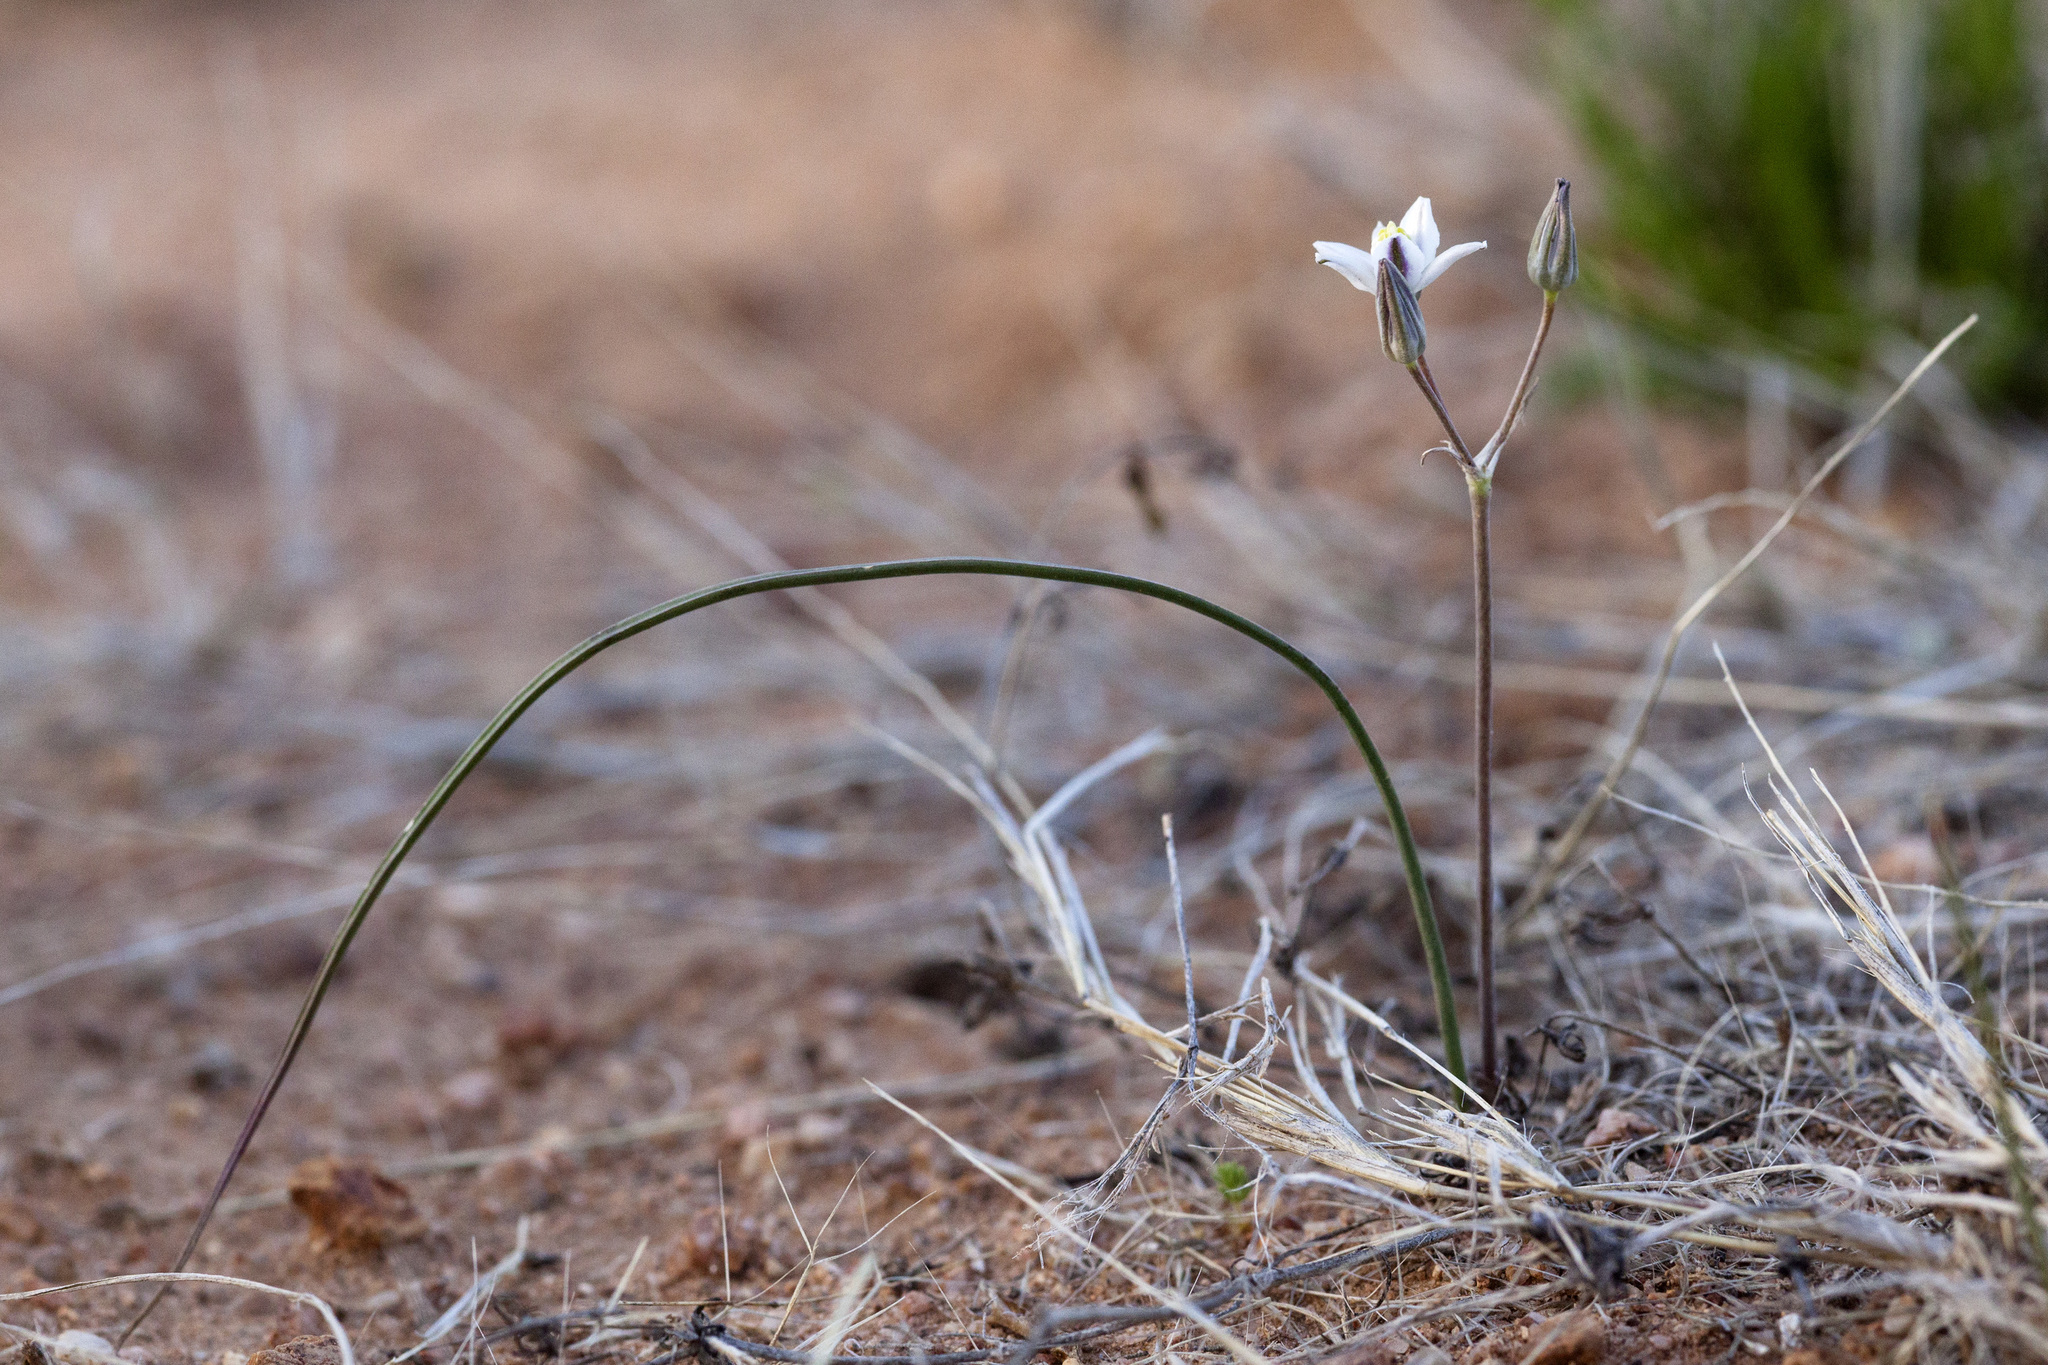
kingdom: Plantae
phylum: Tracheophyta
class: Liliopsida
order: Asparagales
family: Asparagaceae
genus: Muilla
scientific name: Muilla lordsburgana
